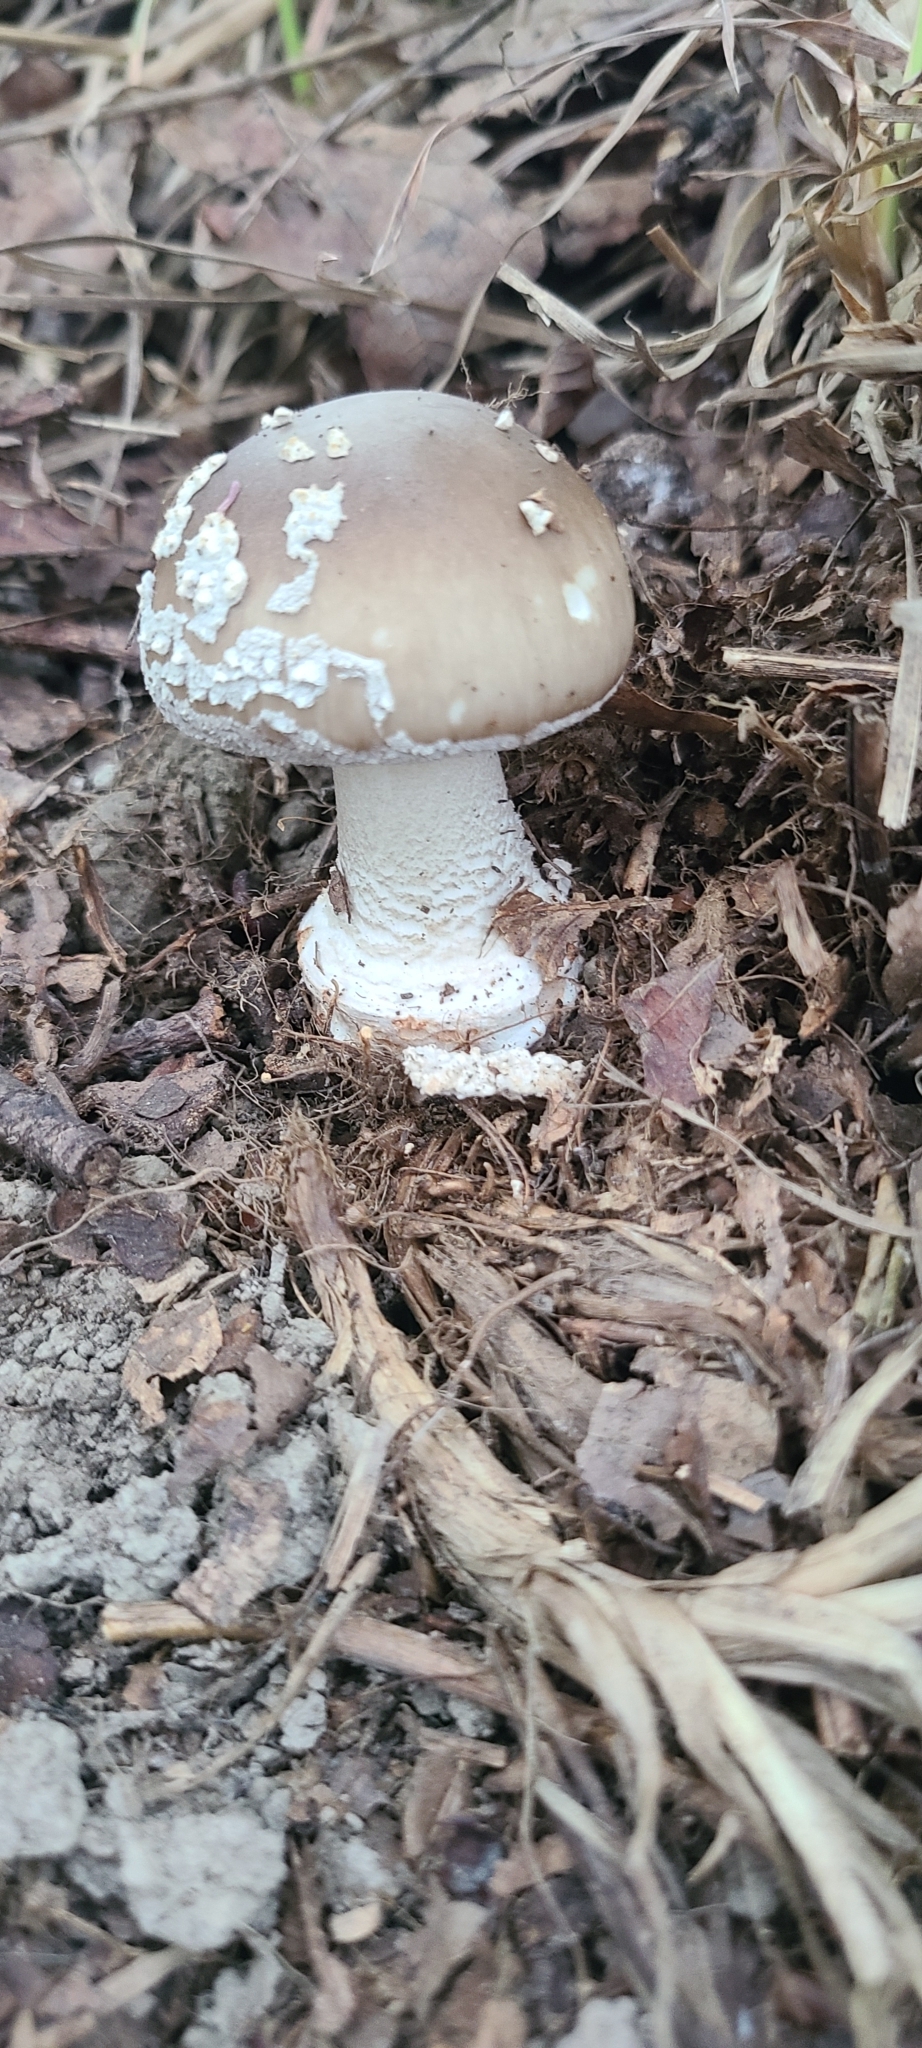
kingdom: Fungi
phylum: Basidiomycota
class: Agaricomycetes
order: Agaricales
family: Amanitaceae
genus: Amanita
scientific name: Amanita excelsa
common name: European false blusher
